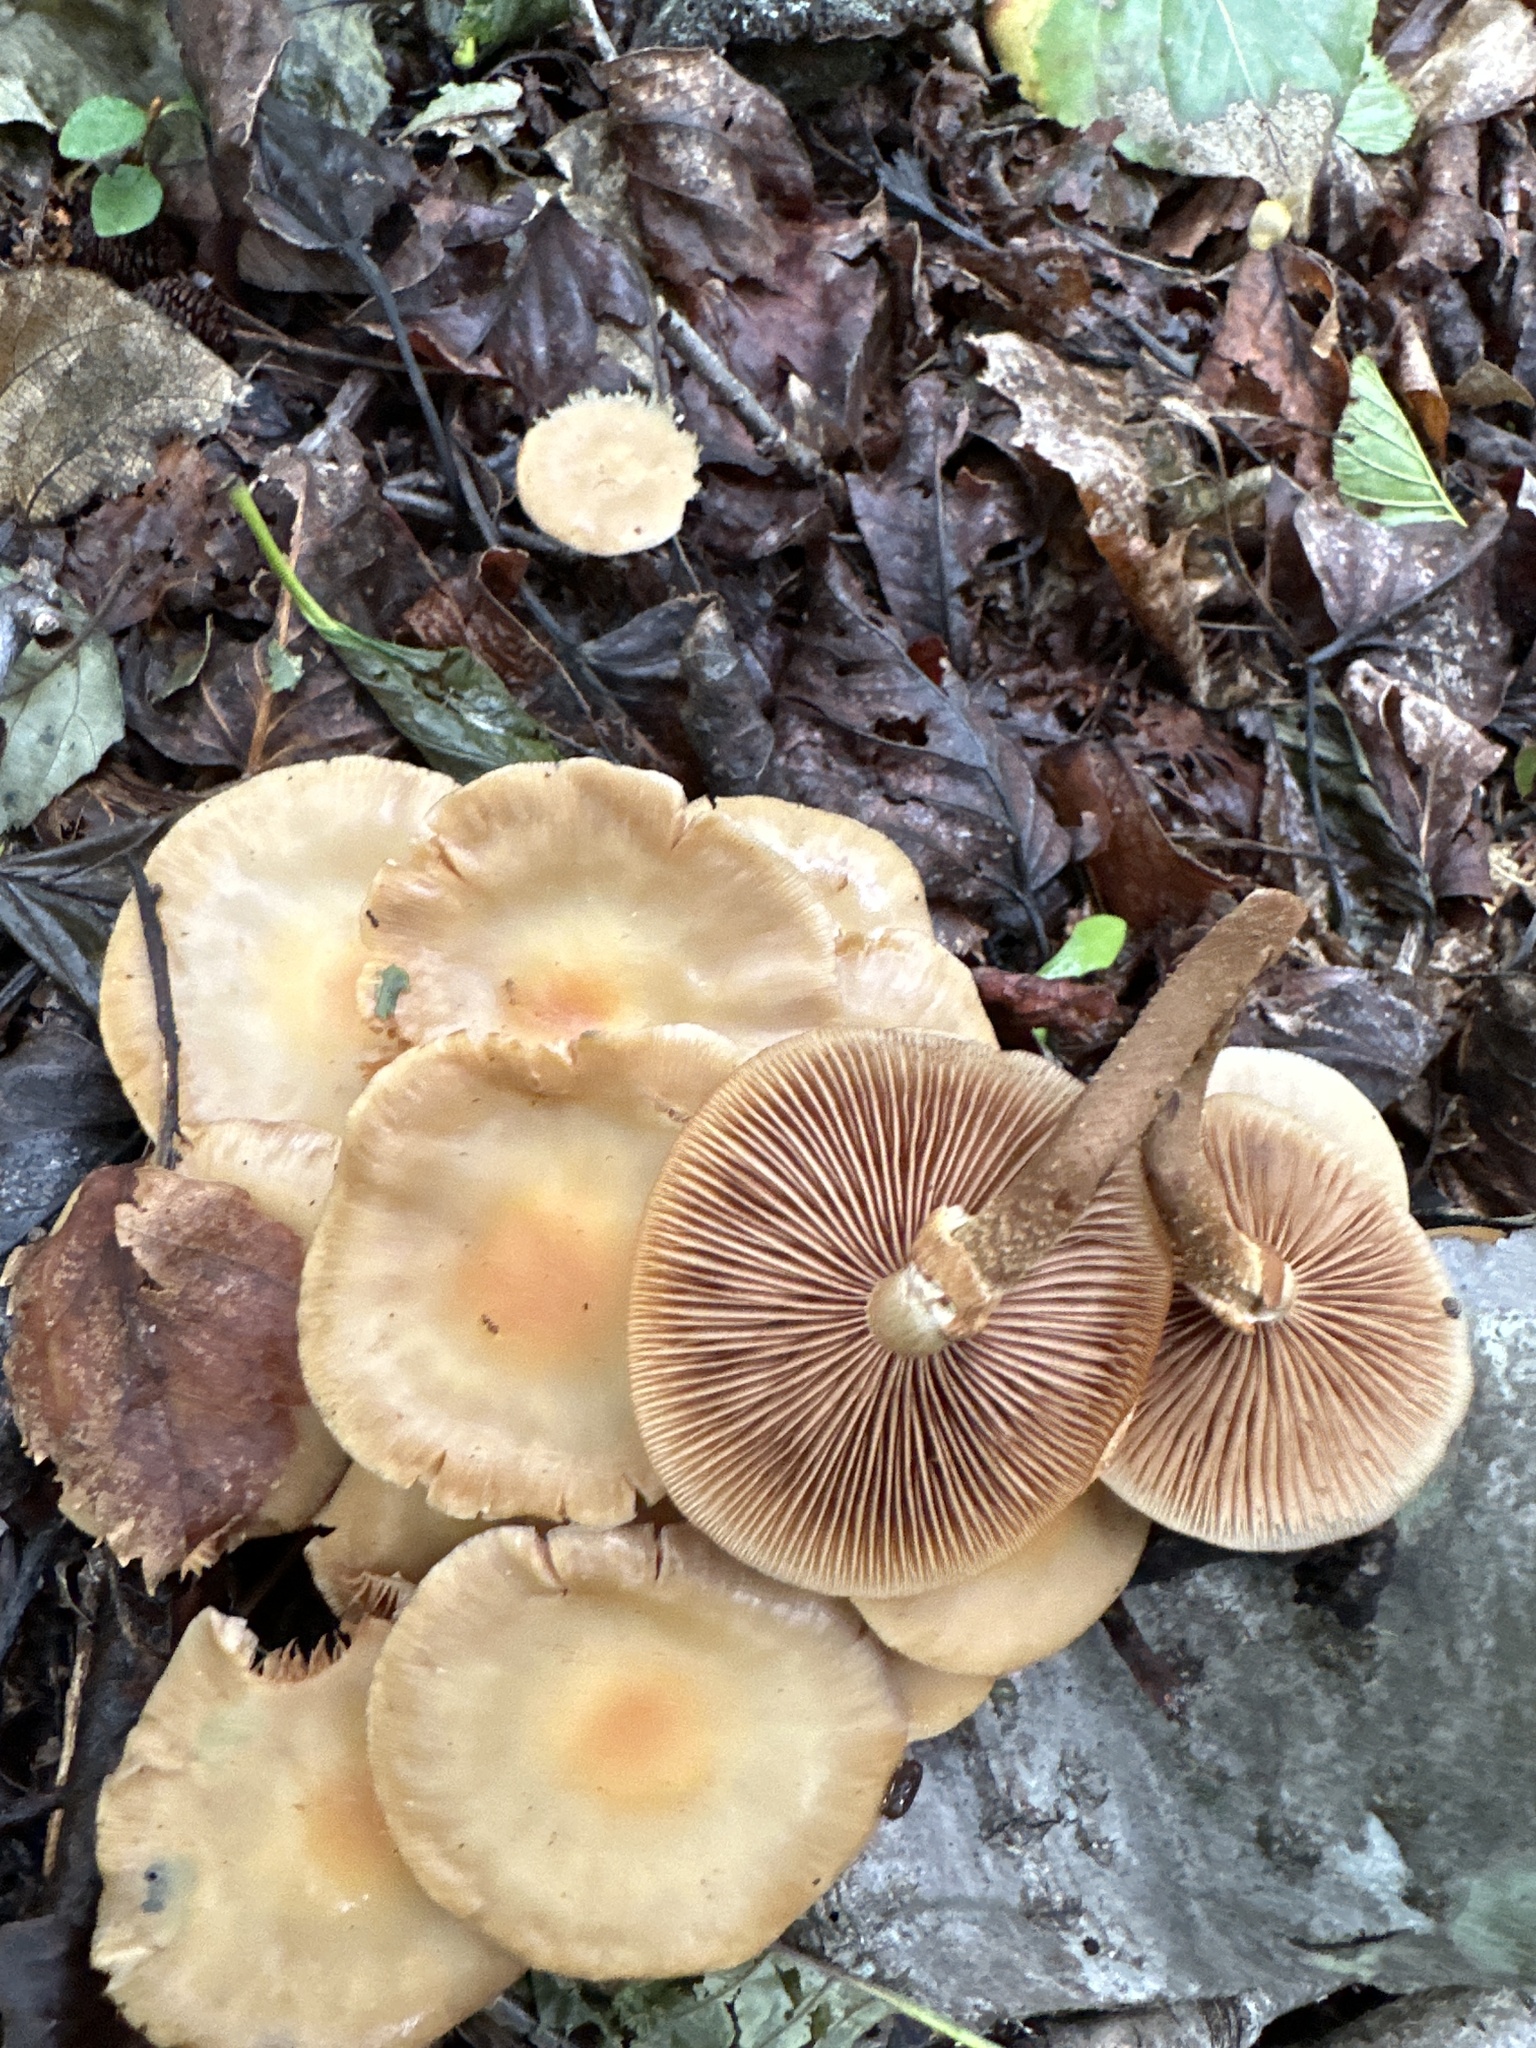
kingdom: Fungi
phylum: Basidiomycota
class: Agaricomycetes
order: Agaricales
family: Strophariaceae
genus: Kuehneromyces
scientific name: Kuehneromyces mutabilis
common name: Sheathed woodtuft
